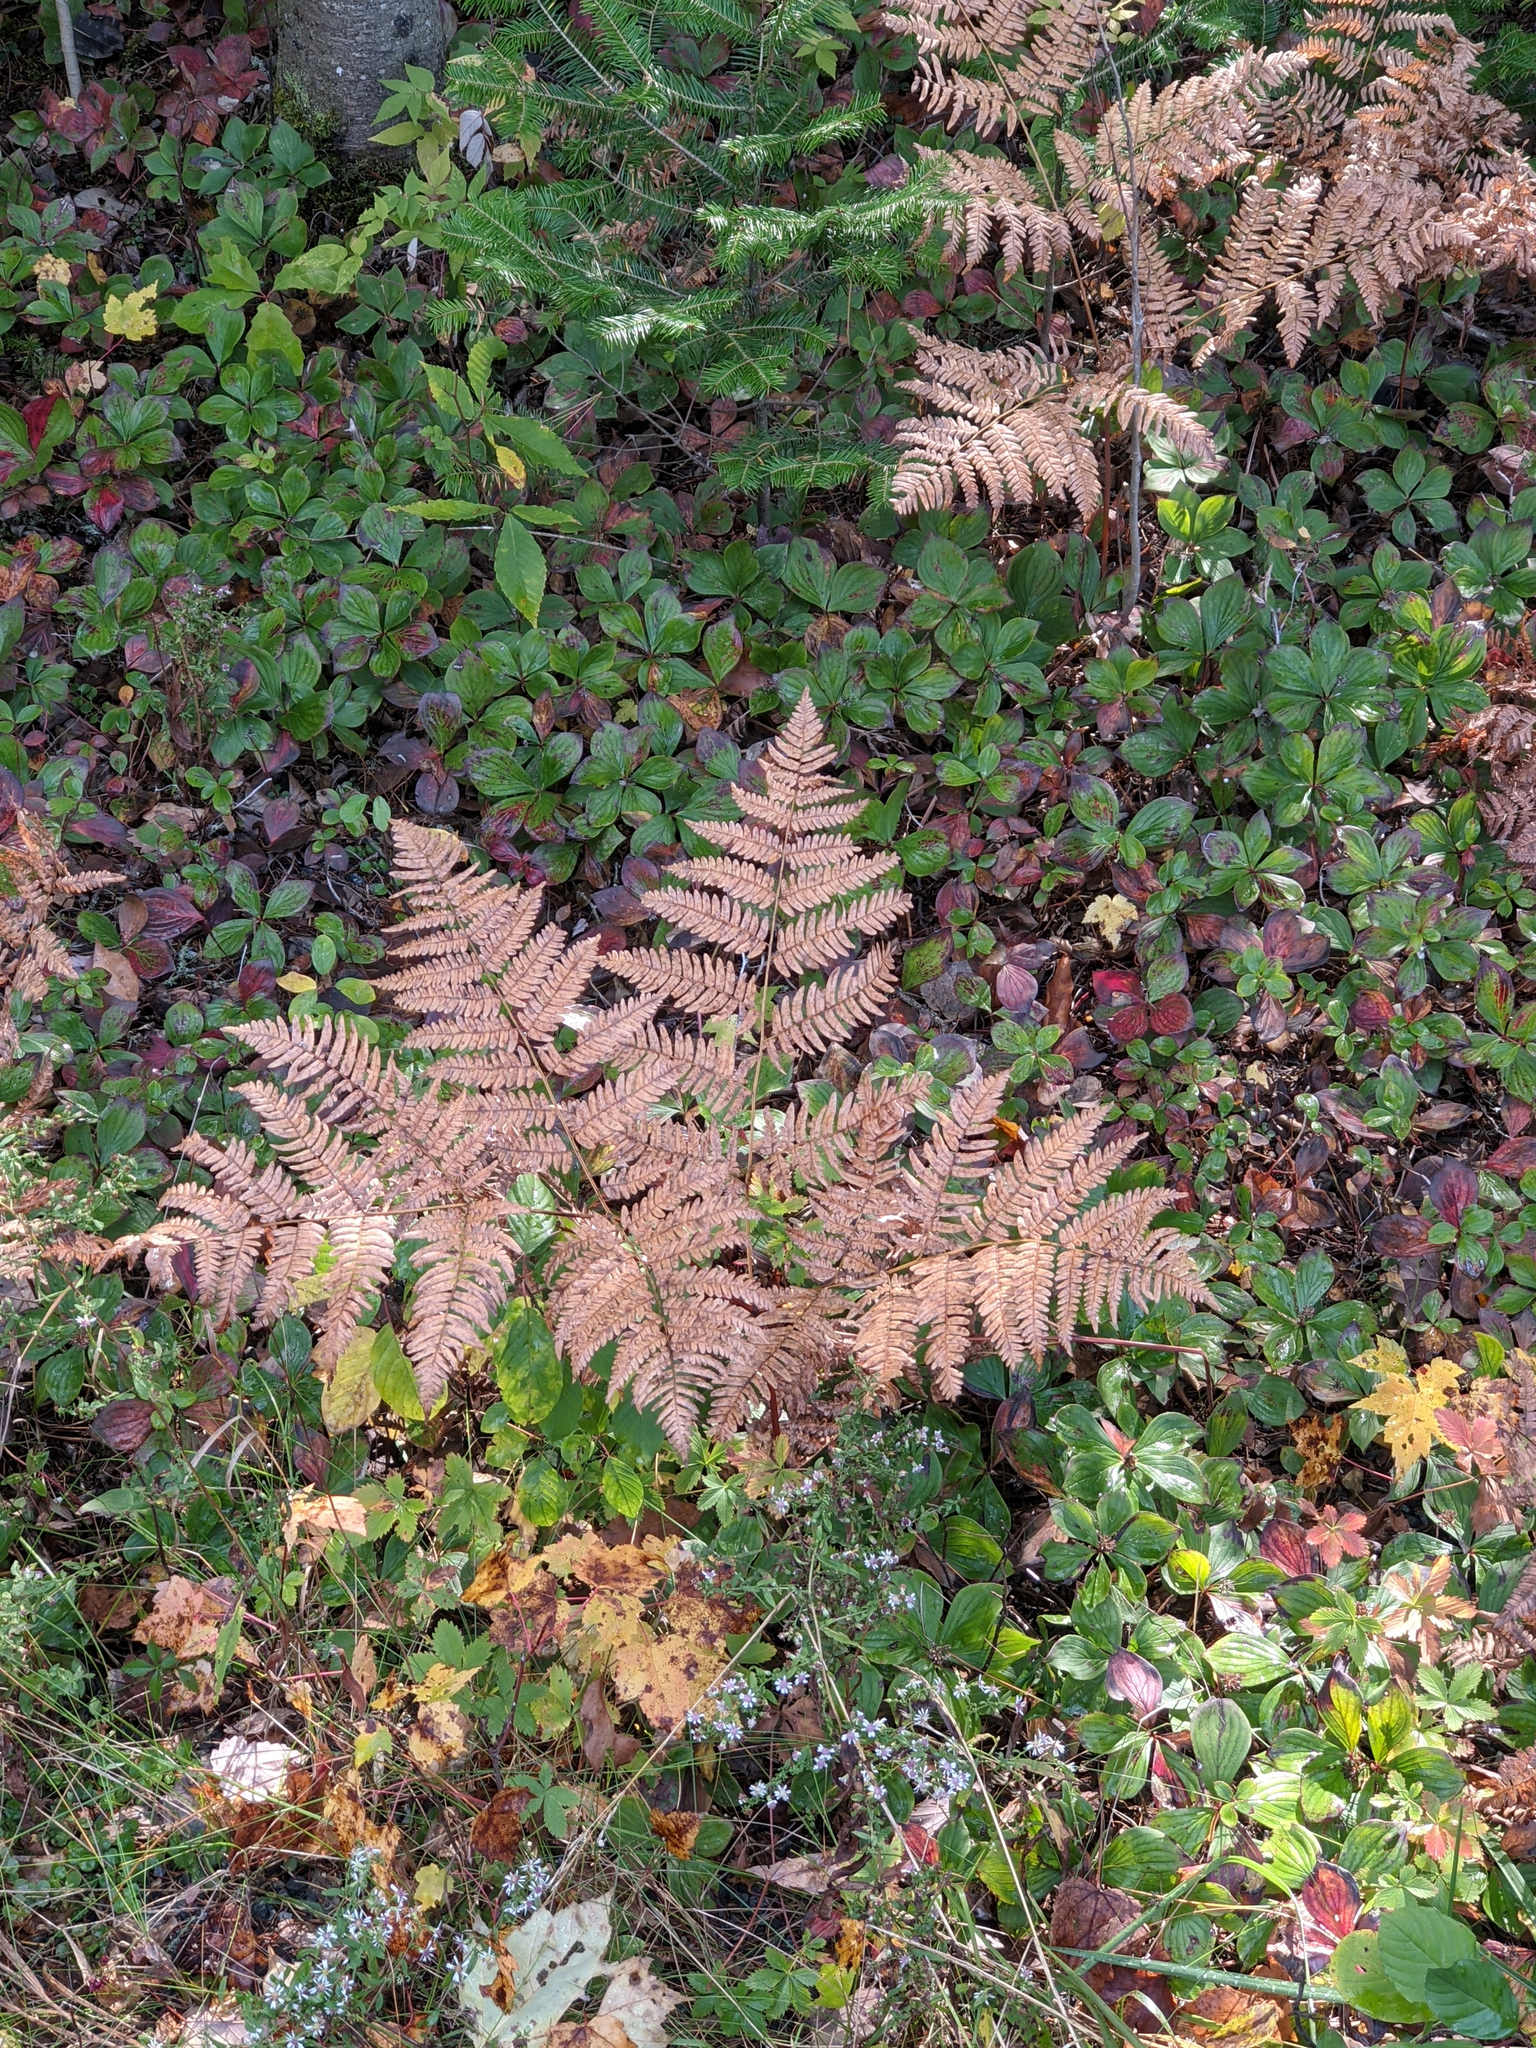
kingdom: Plantae
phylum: Tracheophyta
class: Polypodiopsida
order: Polypodiales
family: Dennstaedtiaceae
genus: Pteridium
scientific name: Pteridium aquilinum
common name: Bracken
